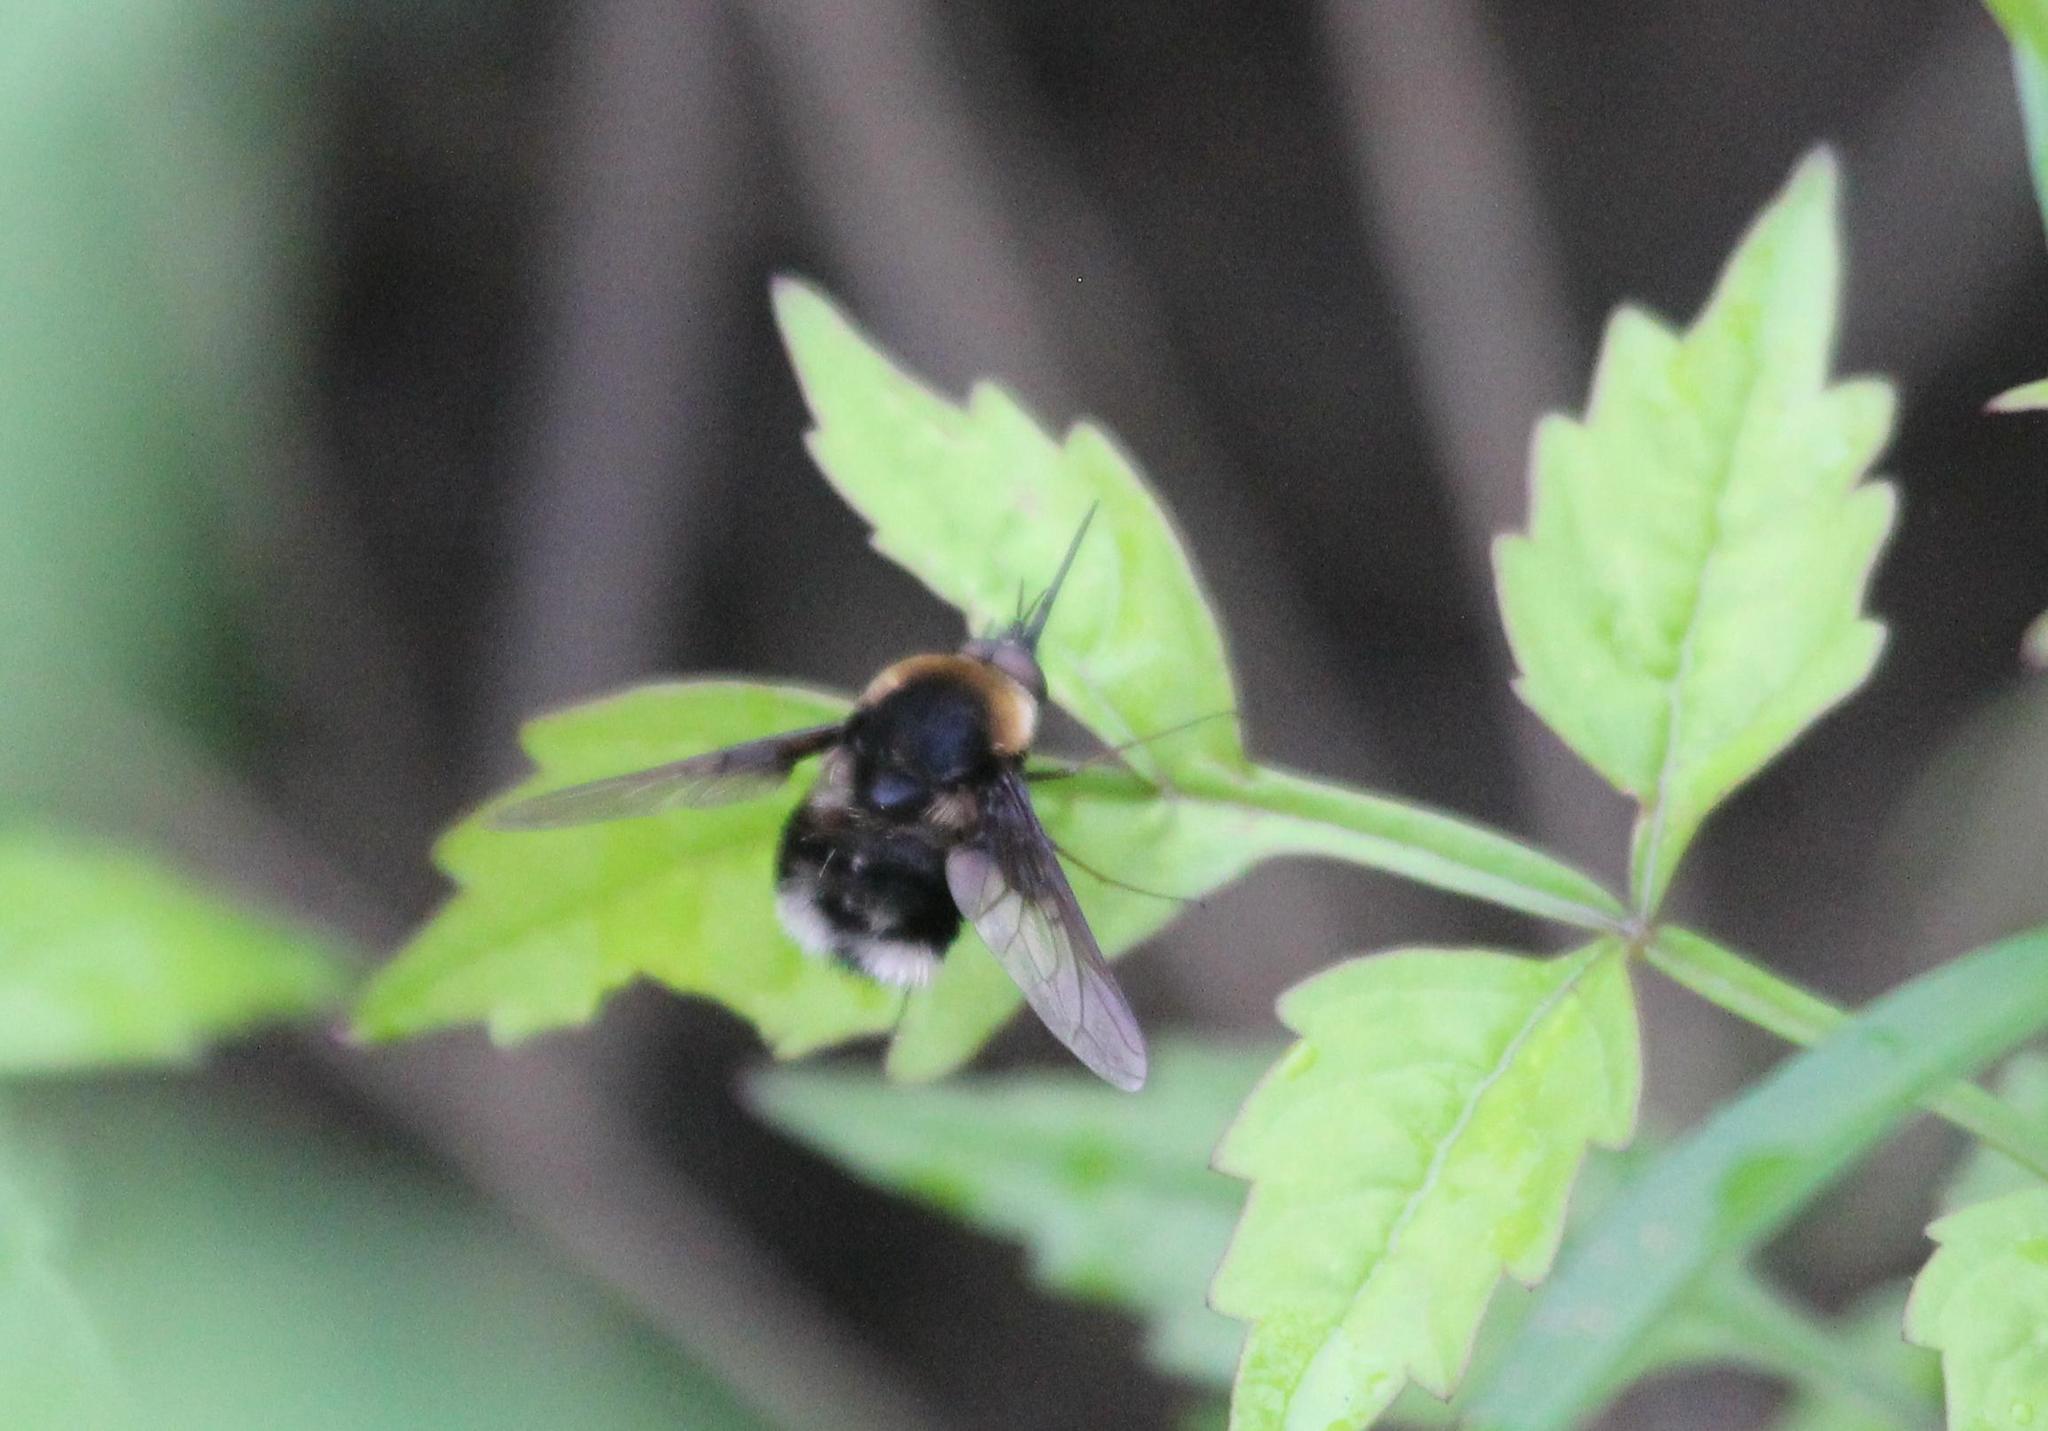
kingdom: Animalia
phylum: Arthropoda
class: Insecta
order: Diptera
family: Bombyliidae
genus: Bombylius
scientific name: Bombylius varius
